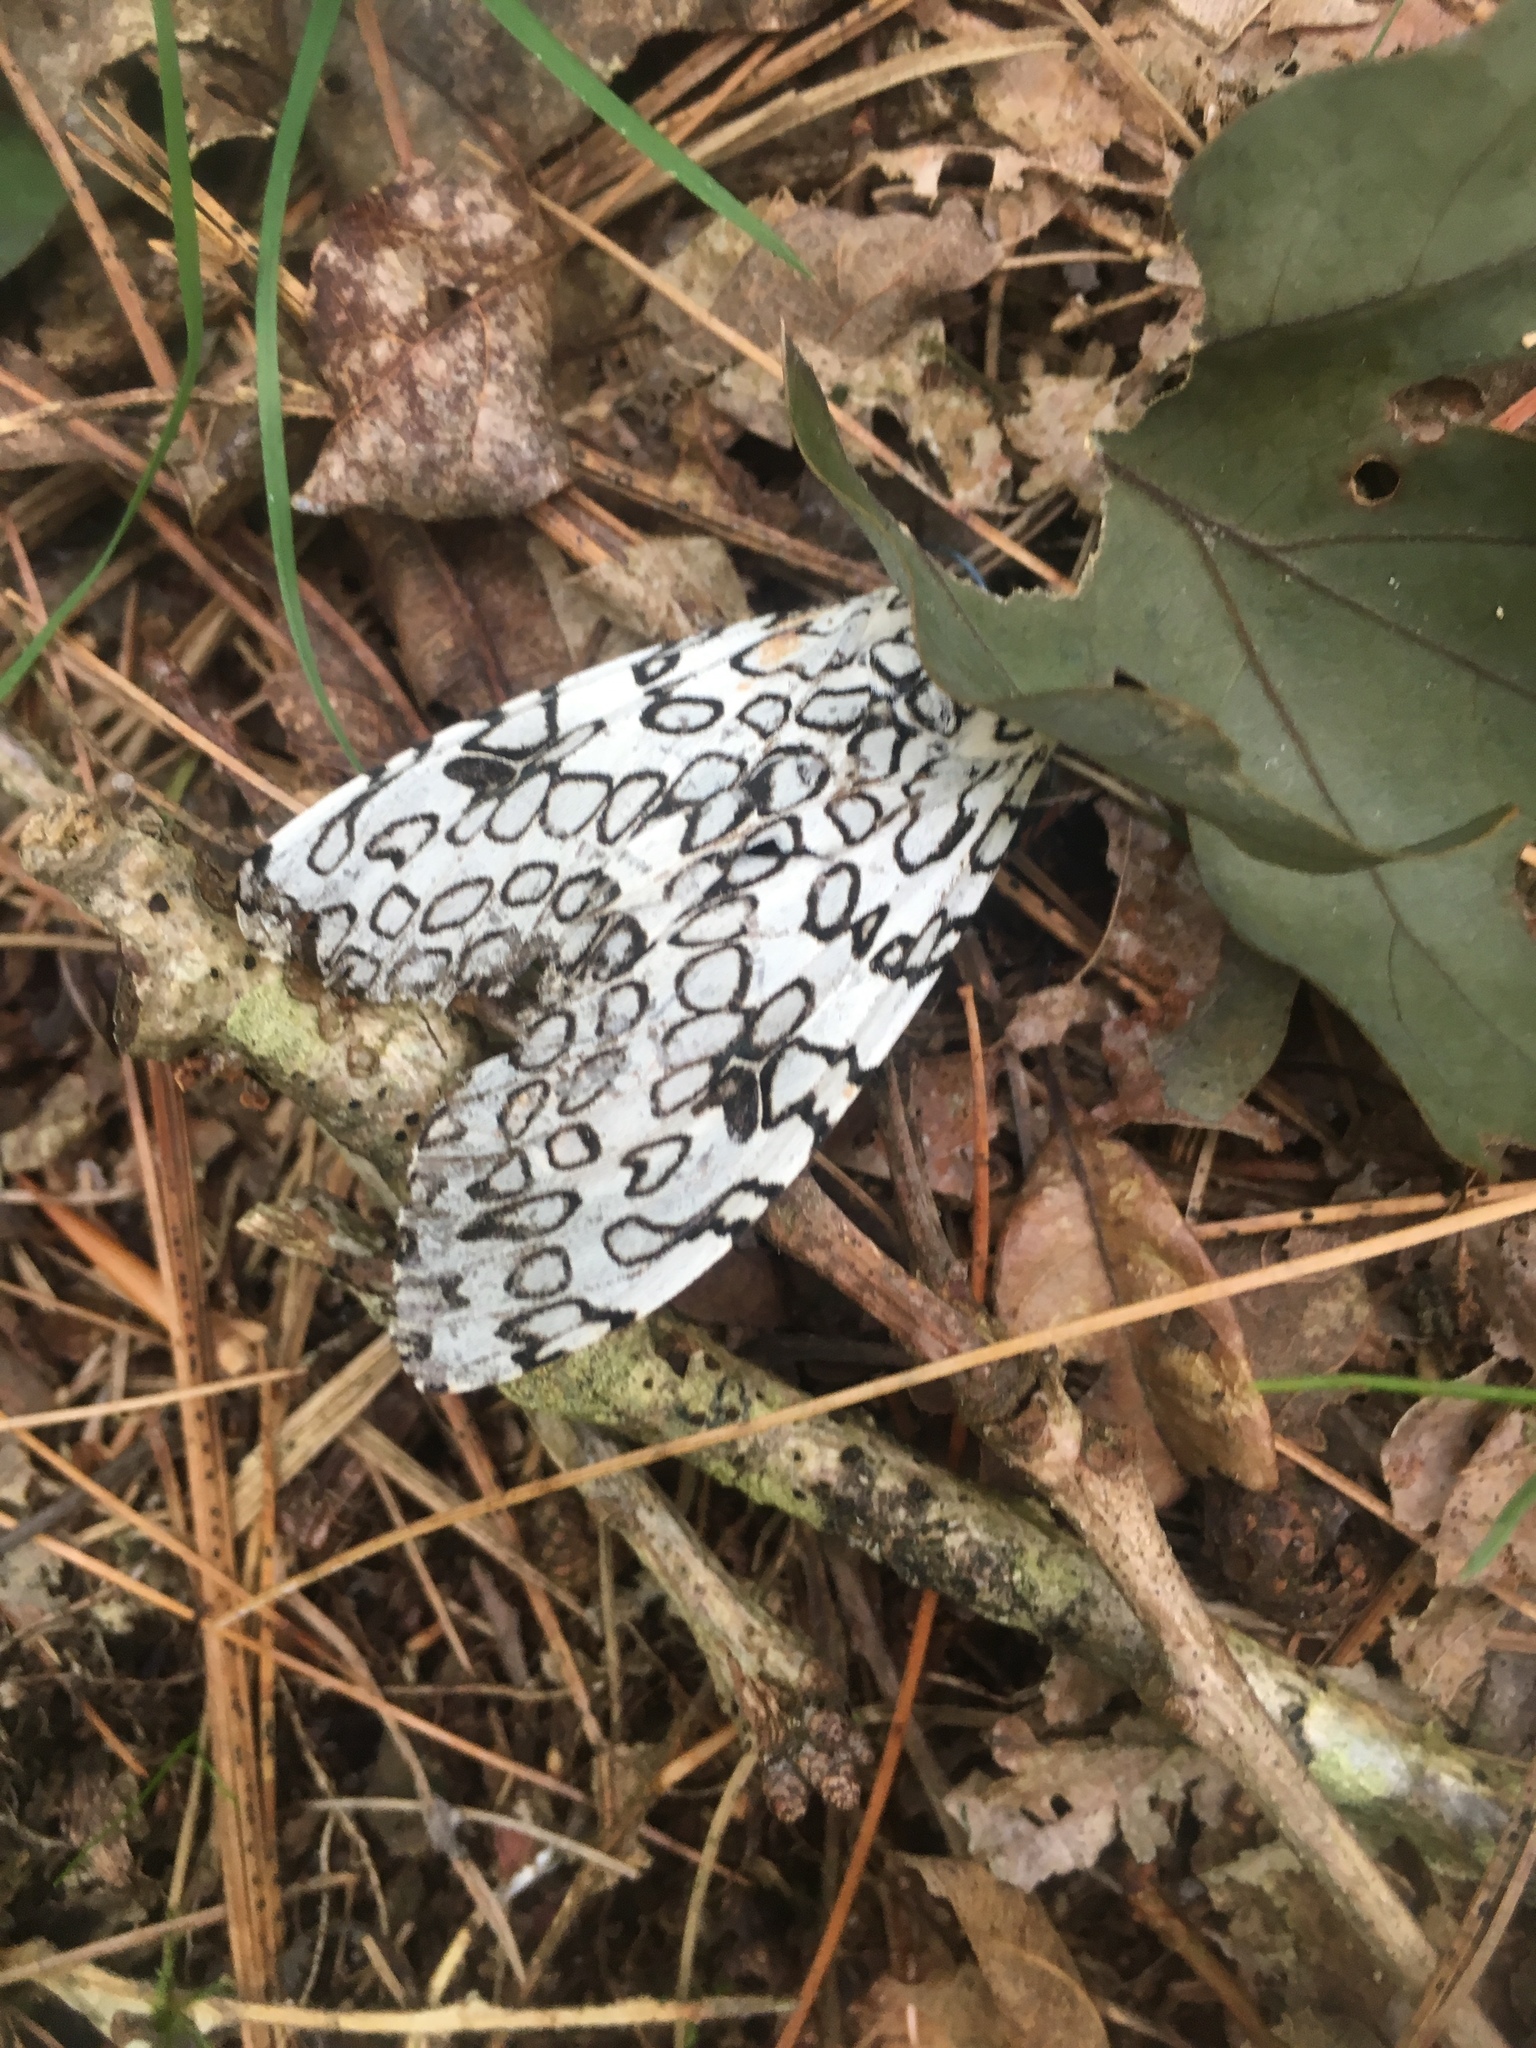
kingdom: Animalia
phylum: Arthropoda
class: Insecta
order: Lepidoptera
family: Erebidae
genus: Hypercompe
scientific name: Hypercompe scribonia
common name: Giant leopard moth
